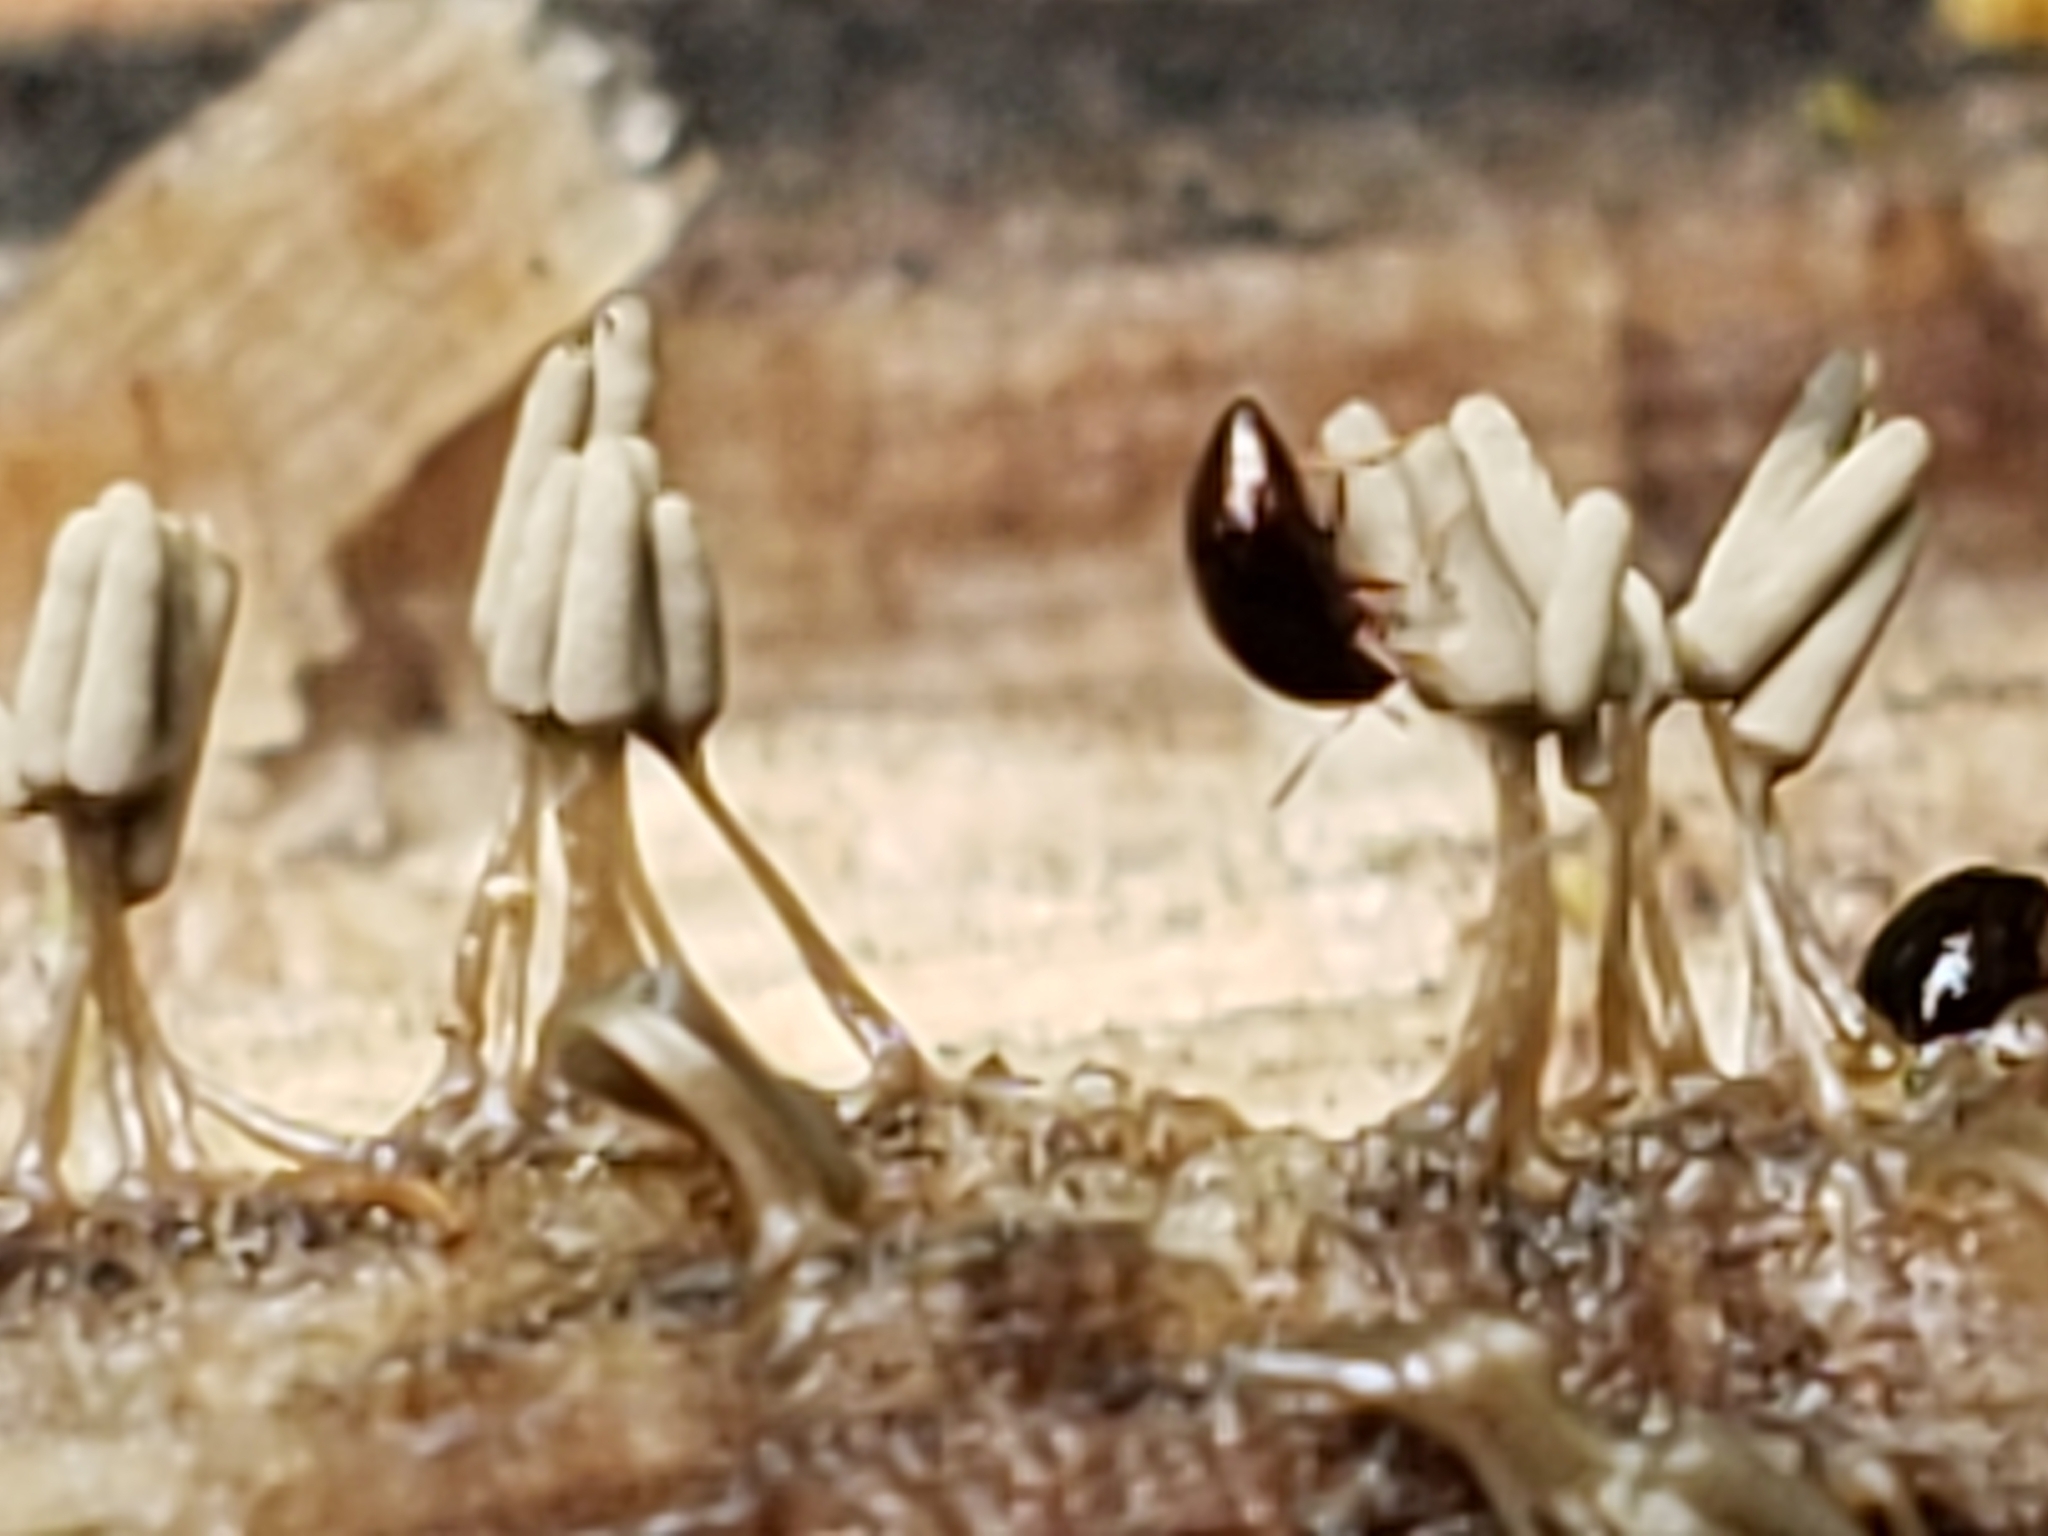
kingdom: Protozoa
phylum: Mycetozoa
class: Myxomycetes
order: Trichiales
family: Arcyriaceae
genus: Arcyria
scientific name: Arcyria cinerea
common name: White carnival candy slime mold
